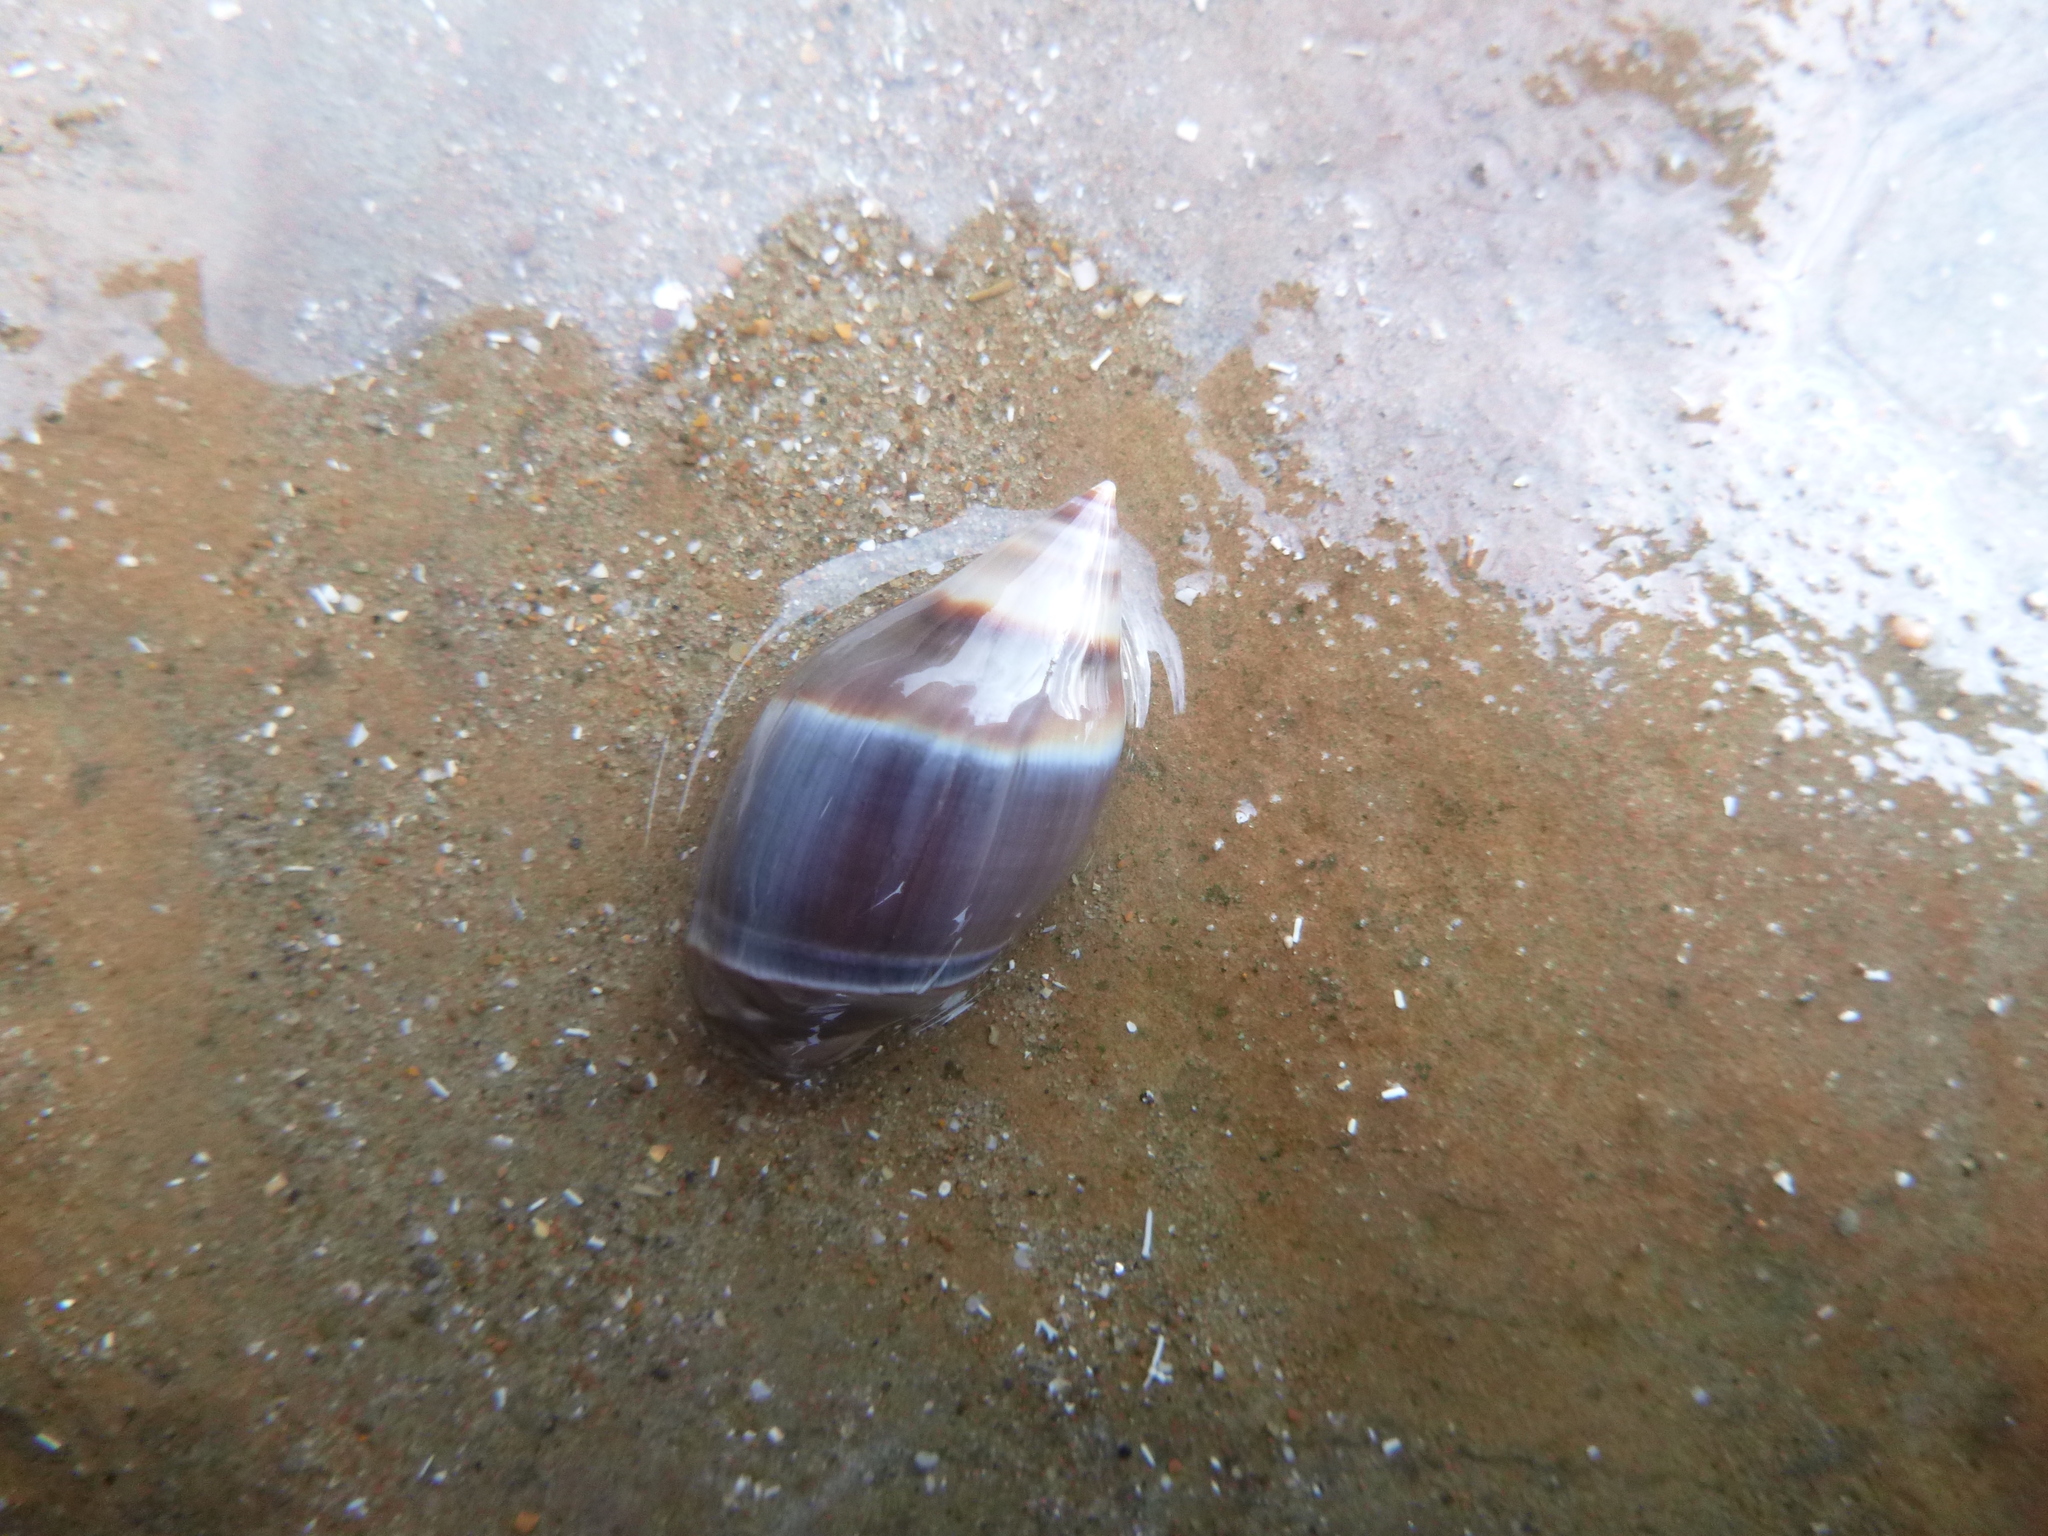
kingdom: Animalia
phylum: Mollusca
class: Gastropoda
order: Neogastropoda
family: Ancillariidae
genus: Amalda
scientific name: Amalda australis
